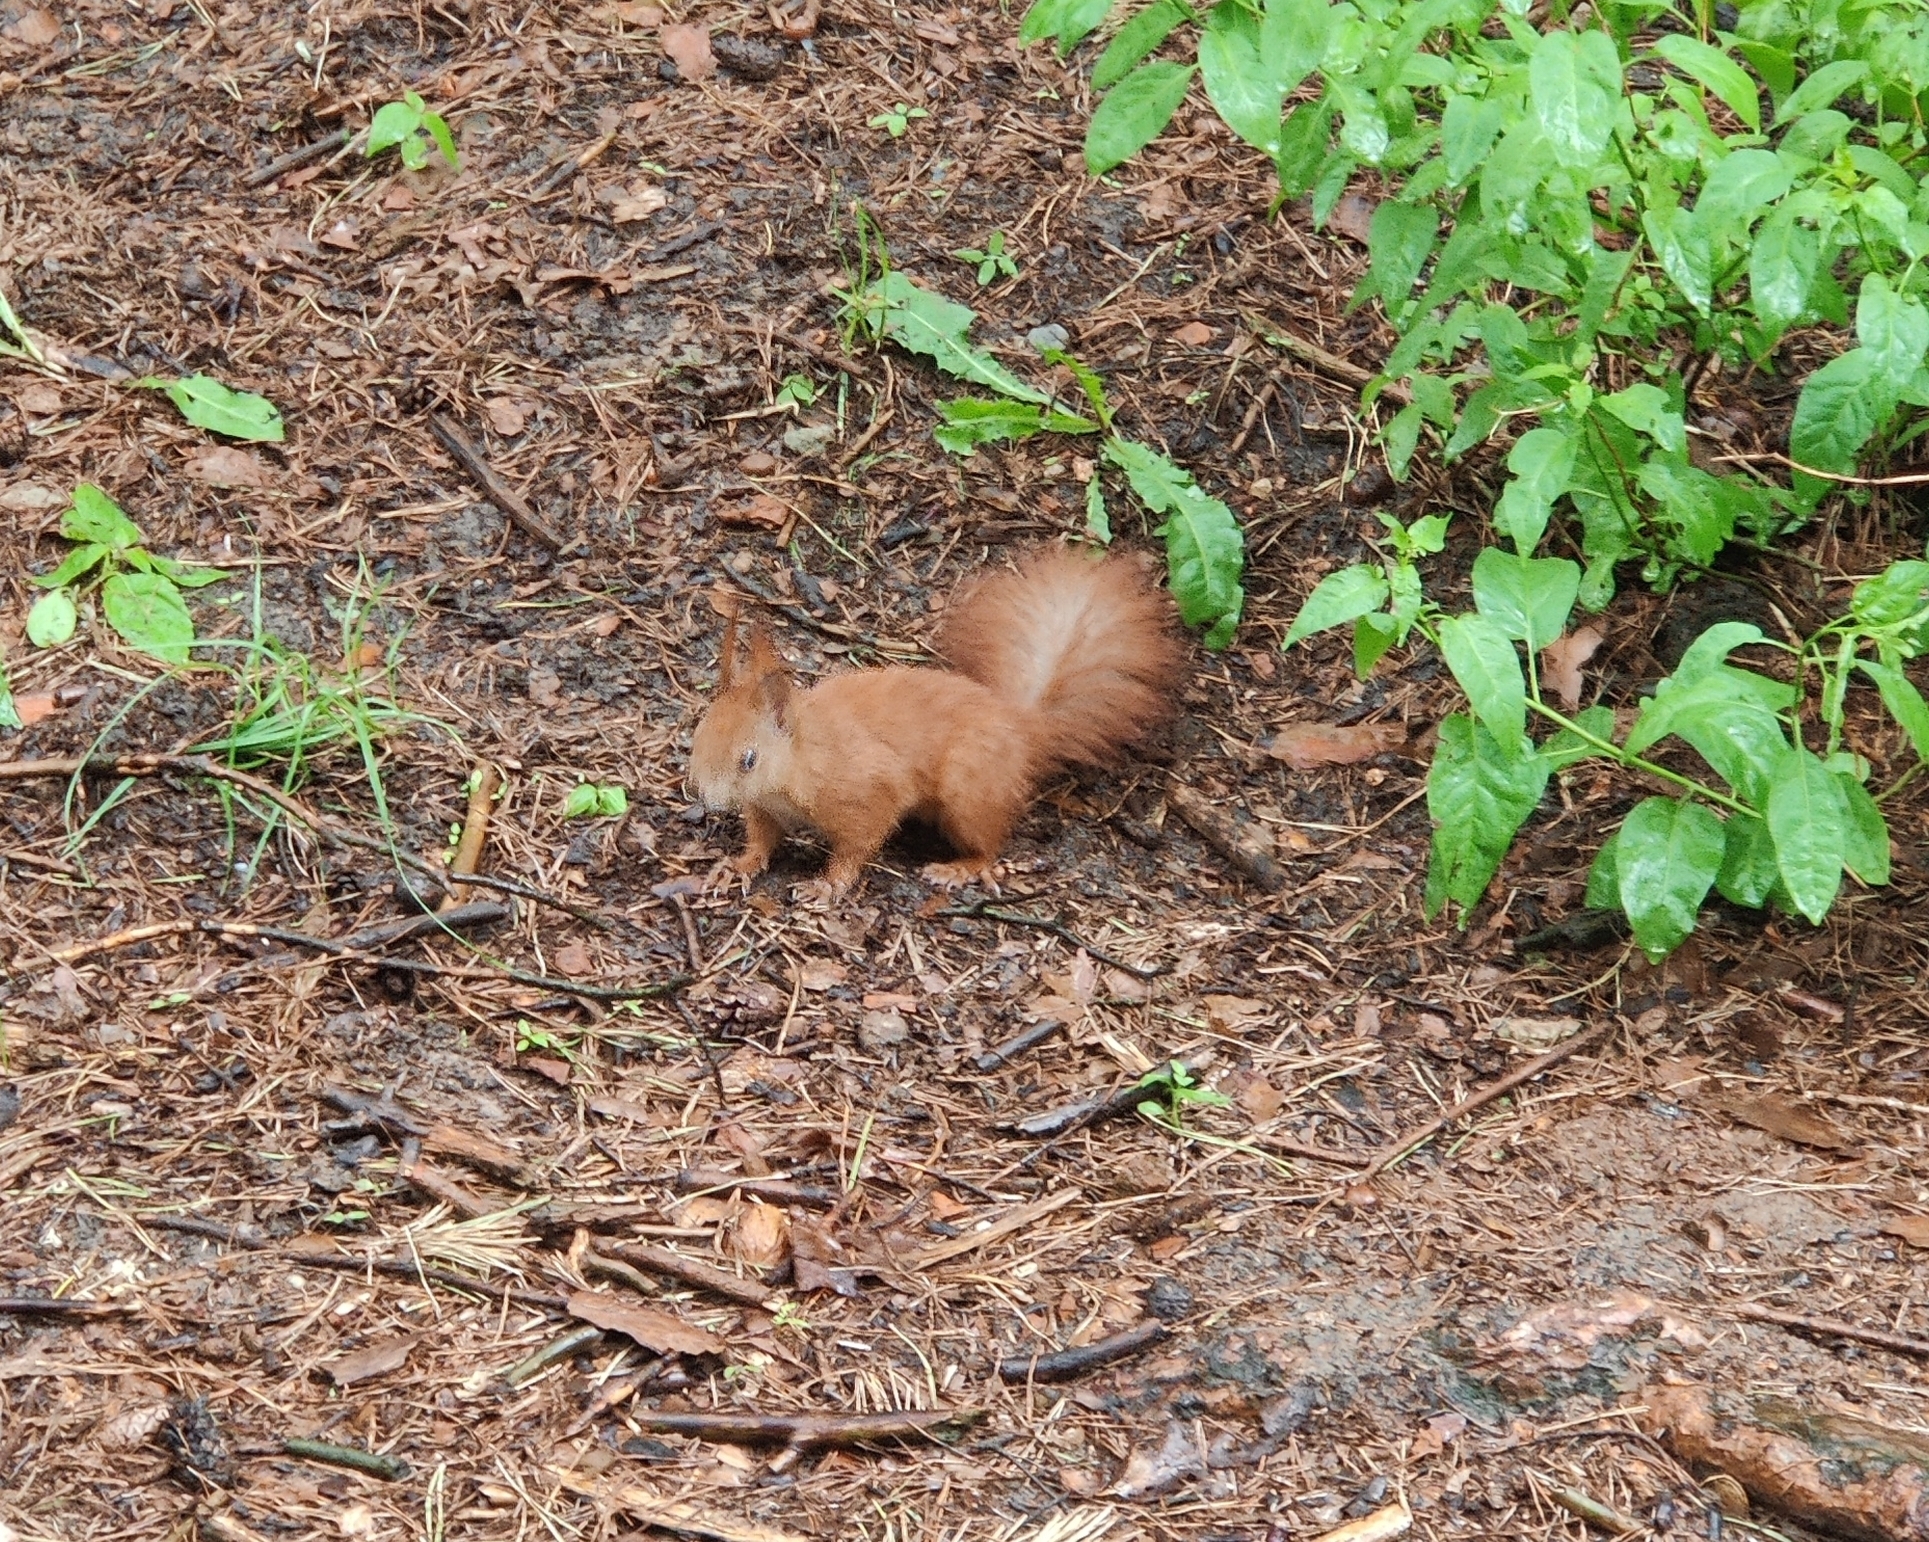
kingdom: Animalia
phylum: Chordata
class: Mammalia
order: Rodentia
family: Sciuridae
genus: Sciurus
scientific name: Sciurus vulgaris
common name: Eurasian red squirrel
